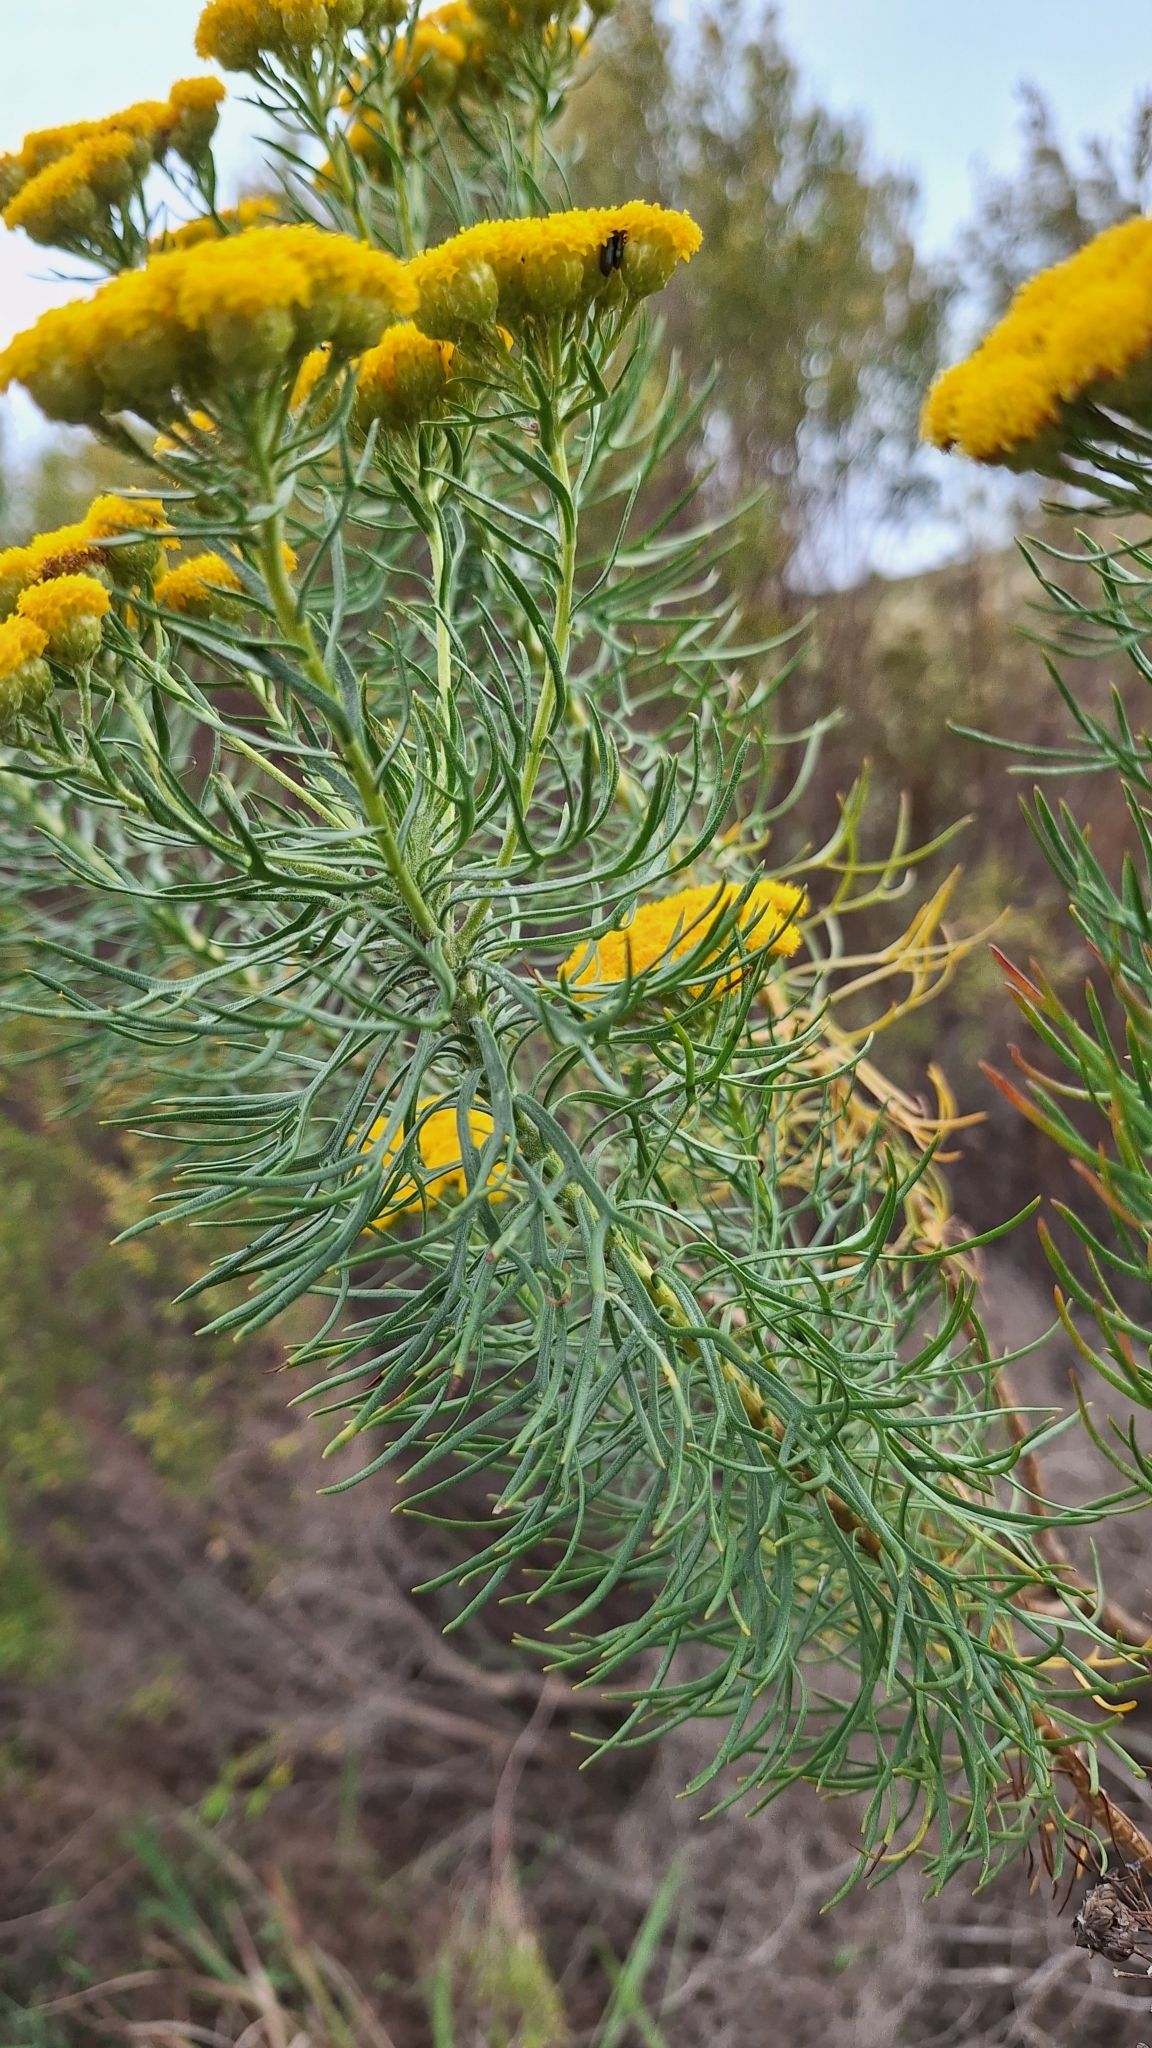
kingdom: Plantae
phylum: Tracheophyta
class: Magnoliopsida
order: Asterales
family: Asteraceae
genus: Athanasia
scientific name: Athanasia crithmifolia
